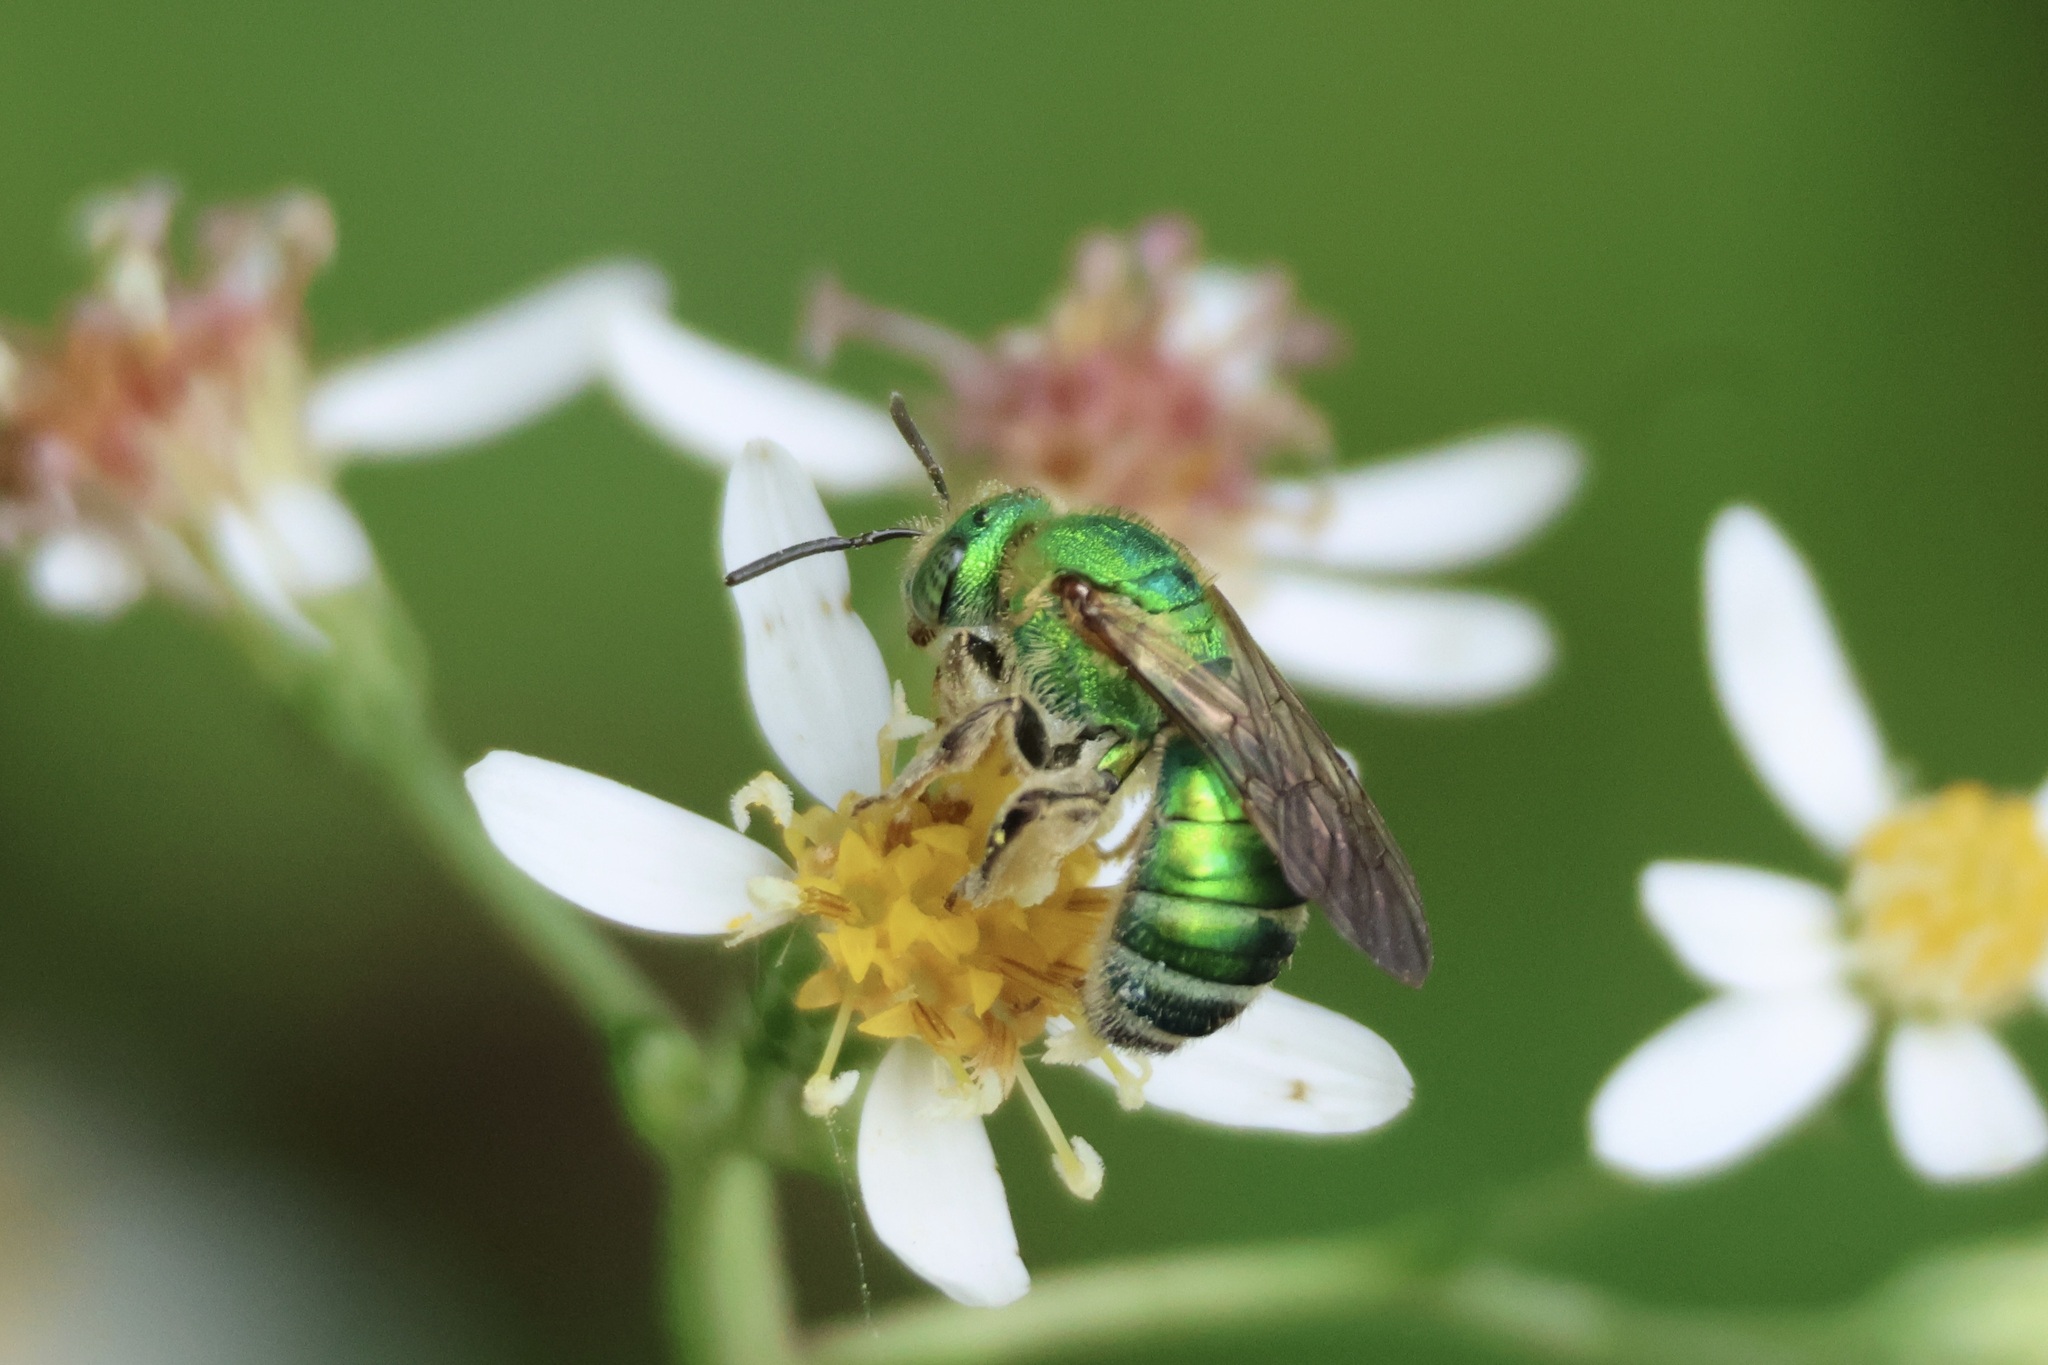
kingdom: Animalia
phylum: Arthropoda
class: Insecta
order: Hymenoptera
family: Halictidae
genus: Agapostemon
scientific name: Agapostemon sericeus
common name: Silky striped sweat bee
